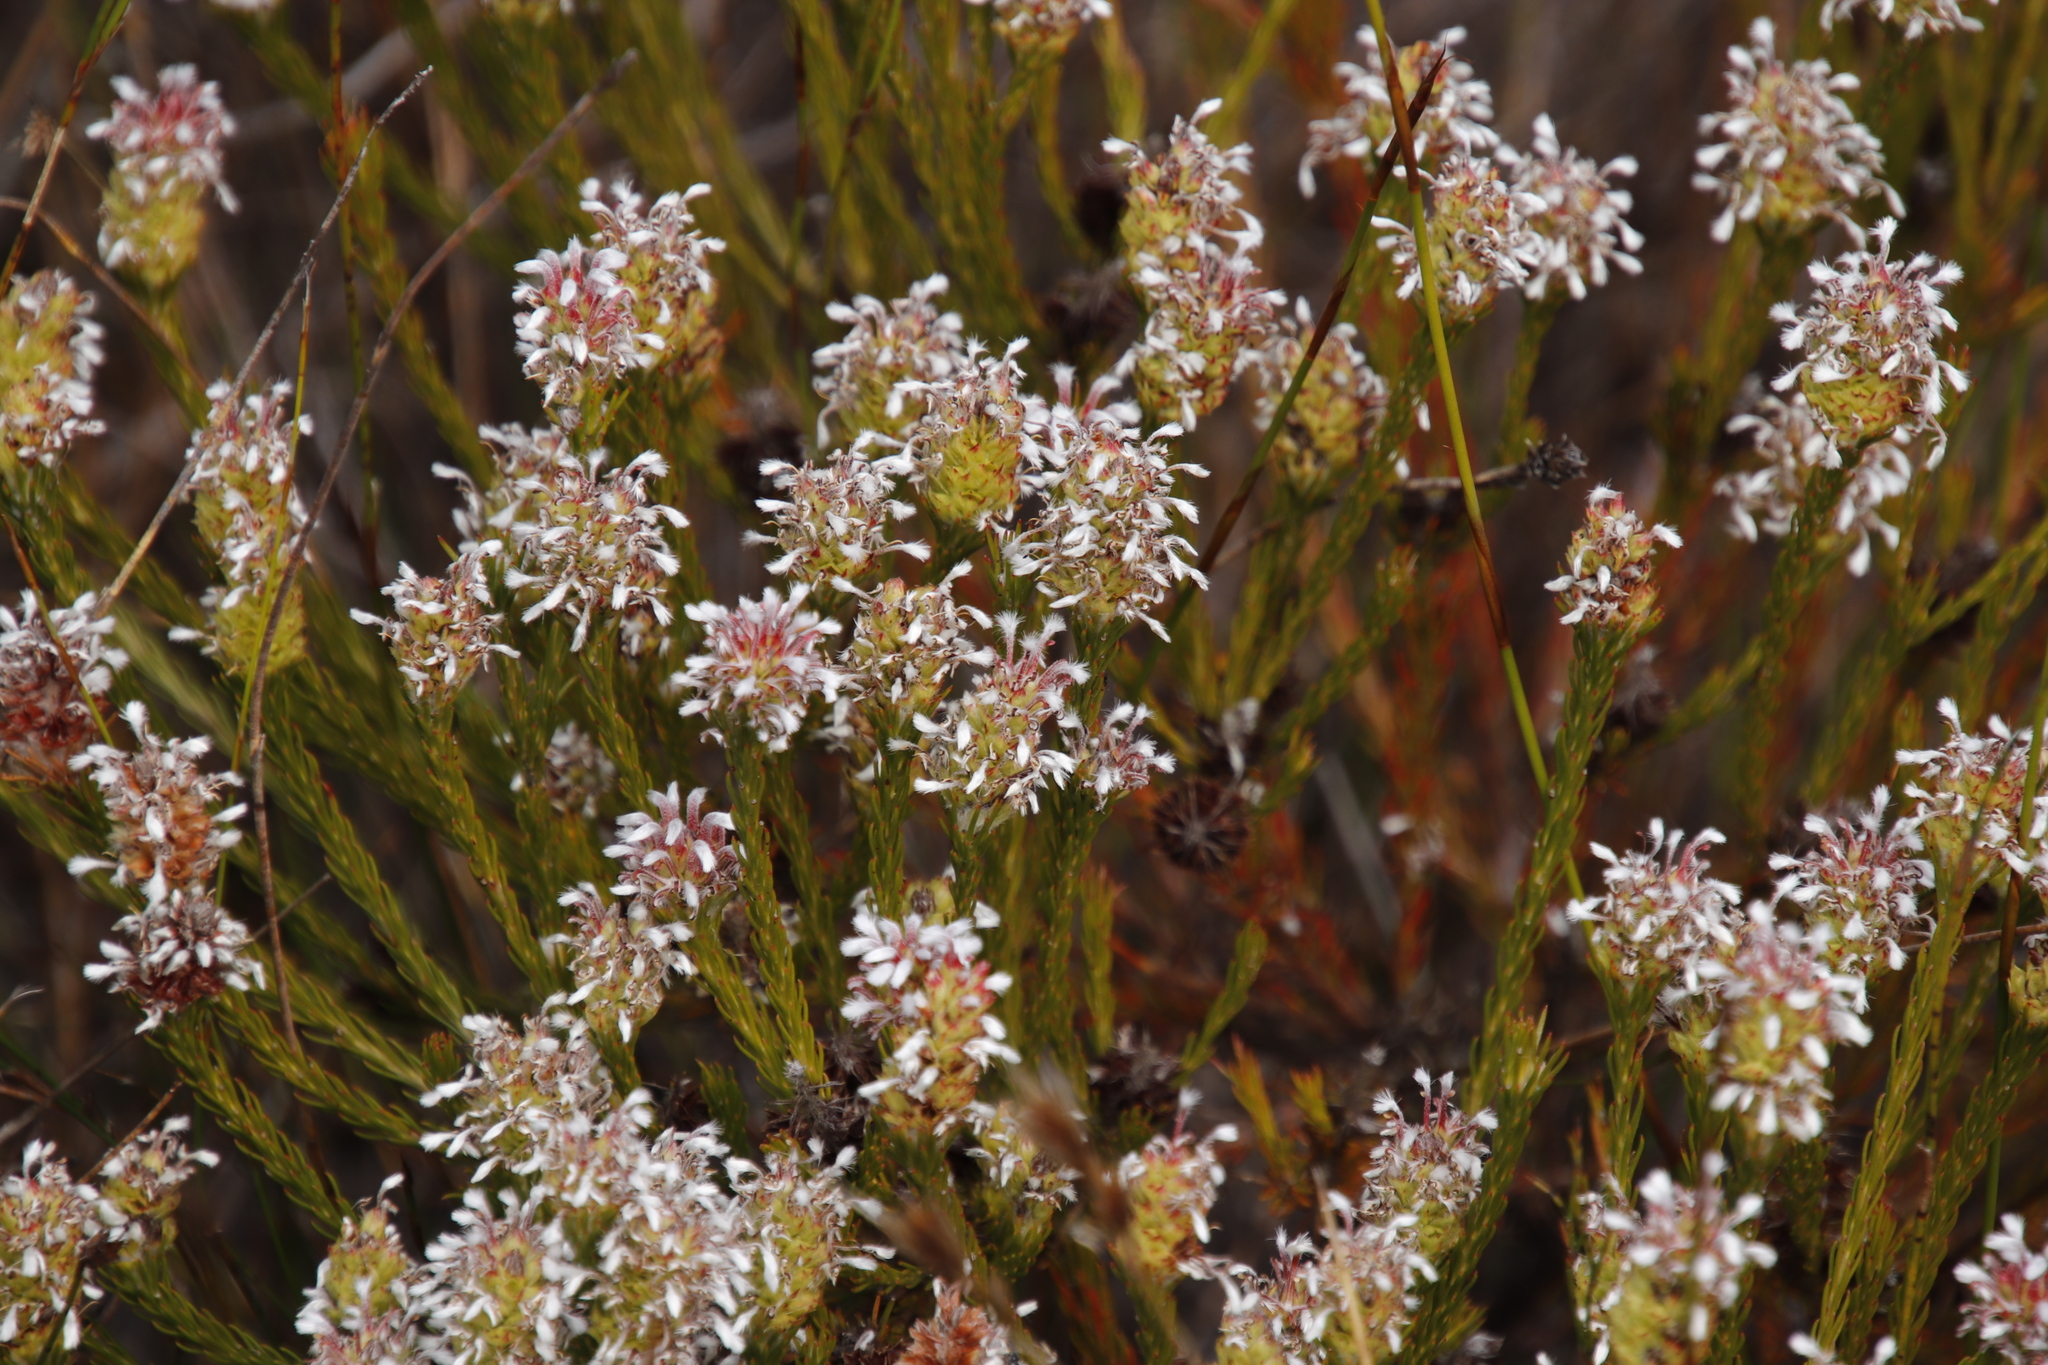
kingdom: Plantae
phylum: Tracheophyta
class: Magnoliopsida
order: Proteales
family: Proteaceae
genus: Spatalla
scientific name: Spatalla squamata
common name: Silky spoon
